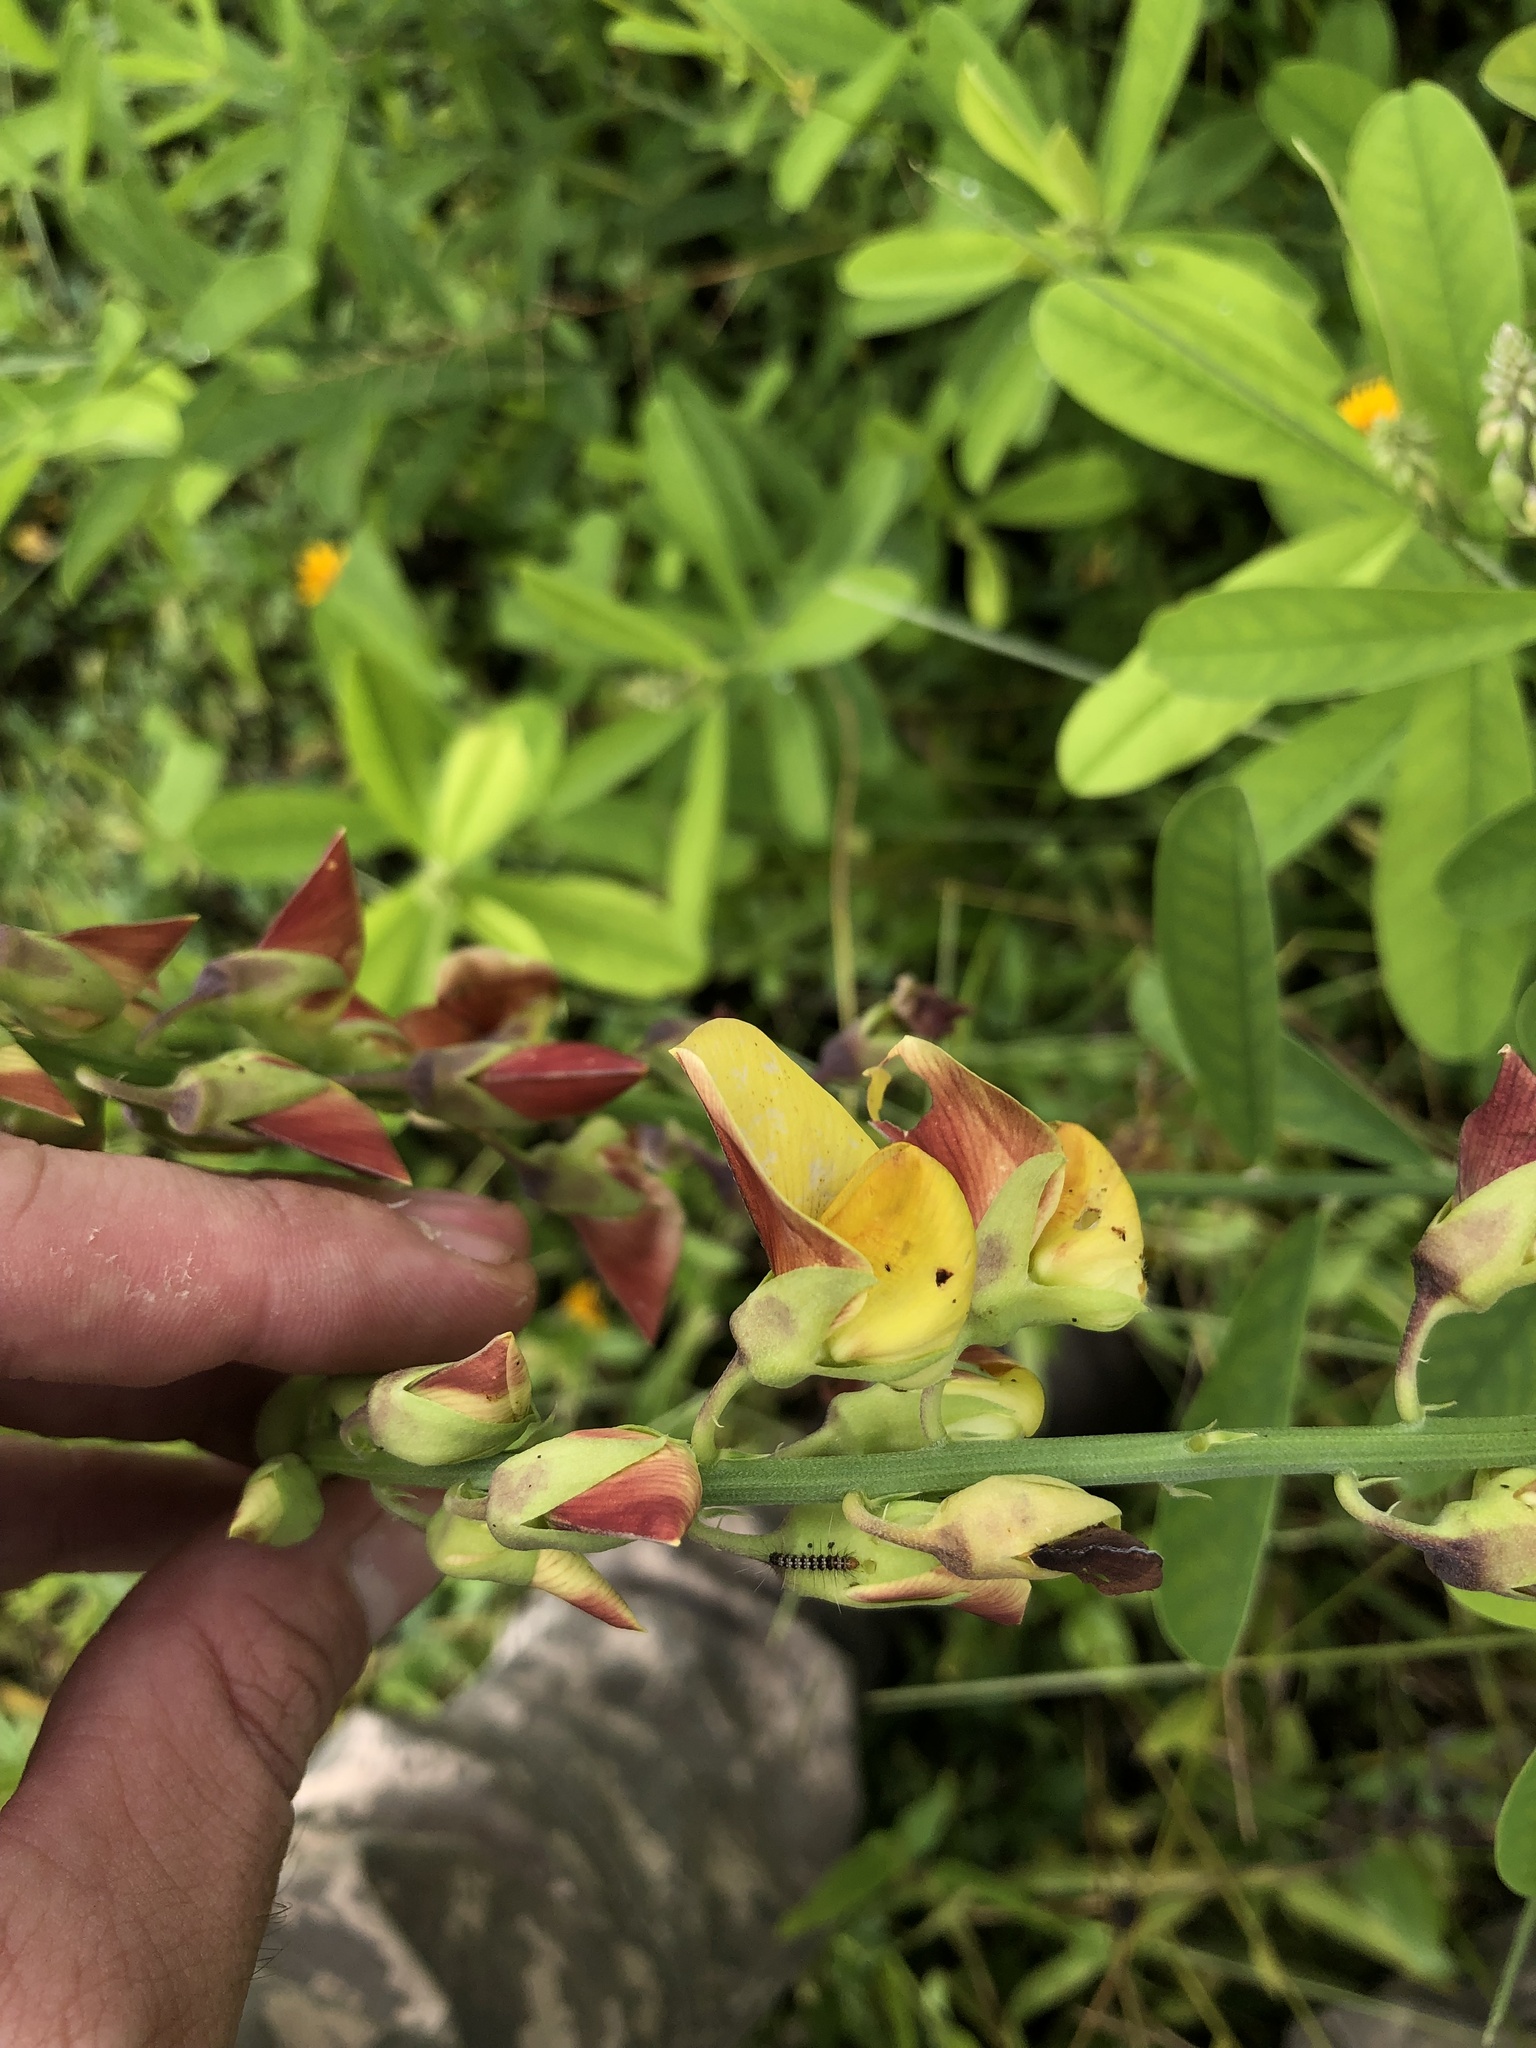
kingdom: Plantae
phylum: Tracheophyta
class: Magnoliopsida
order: Fabales
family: Fabaceae
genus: Crotalaria
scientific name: Crotalaria retusa
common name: Rattleweed
